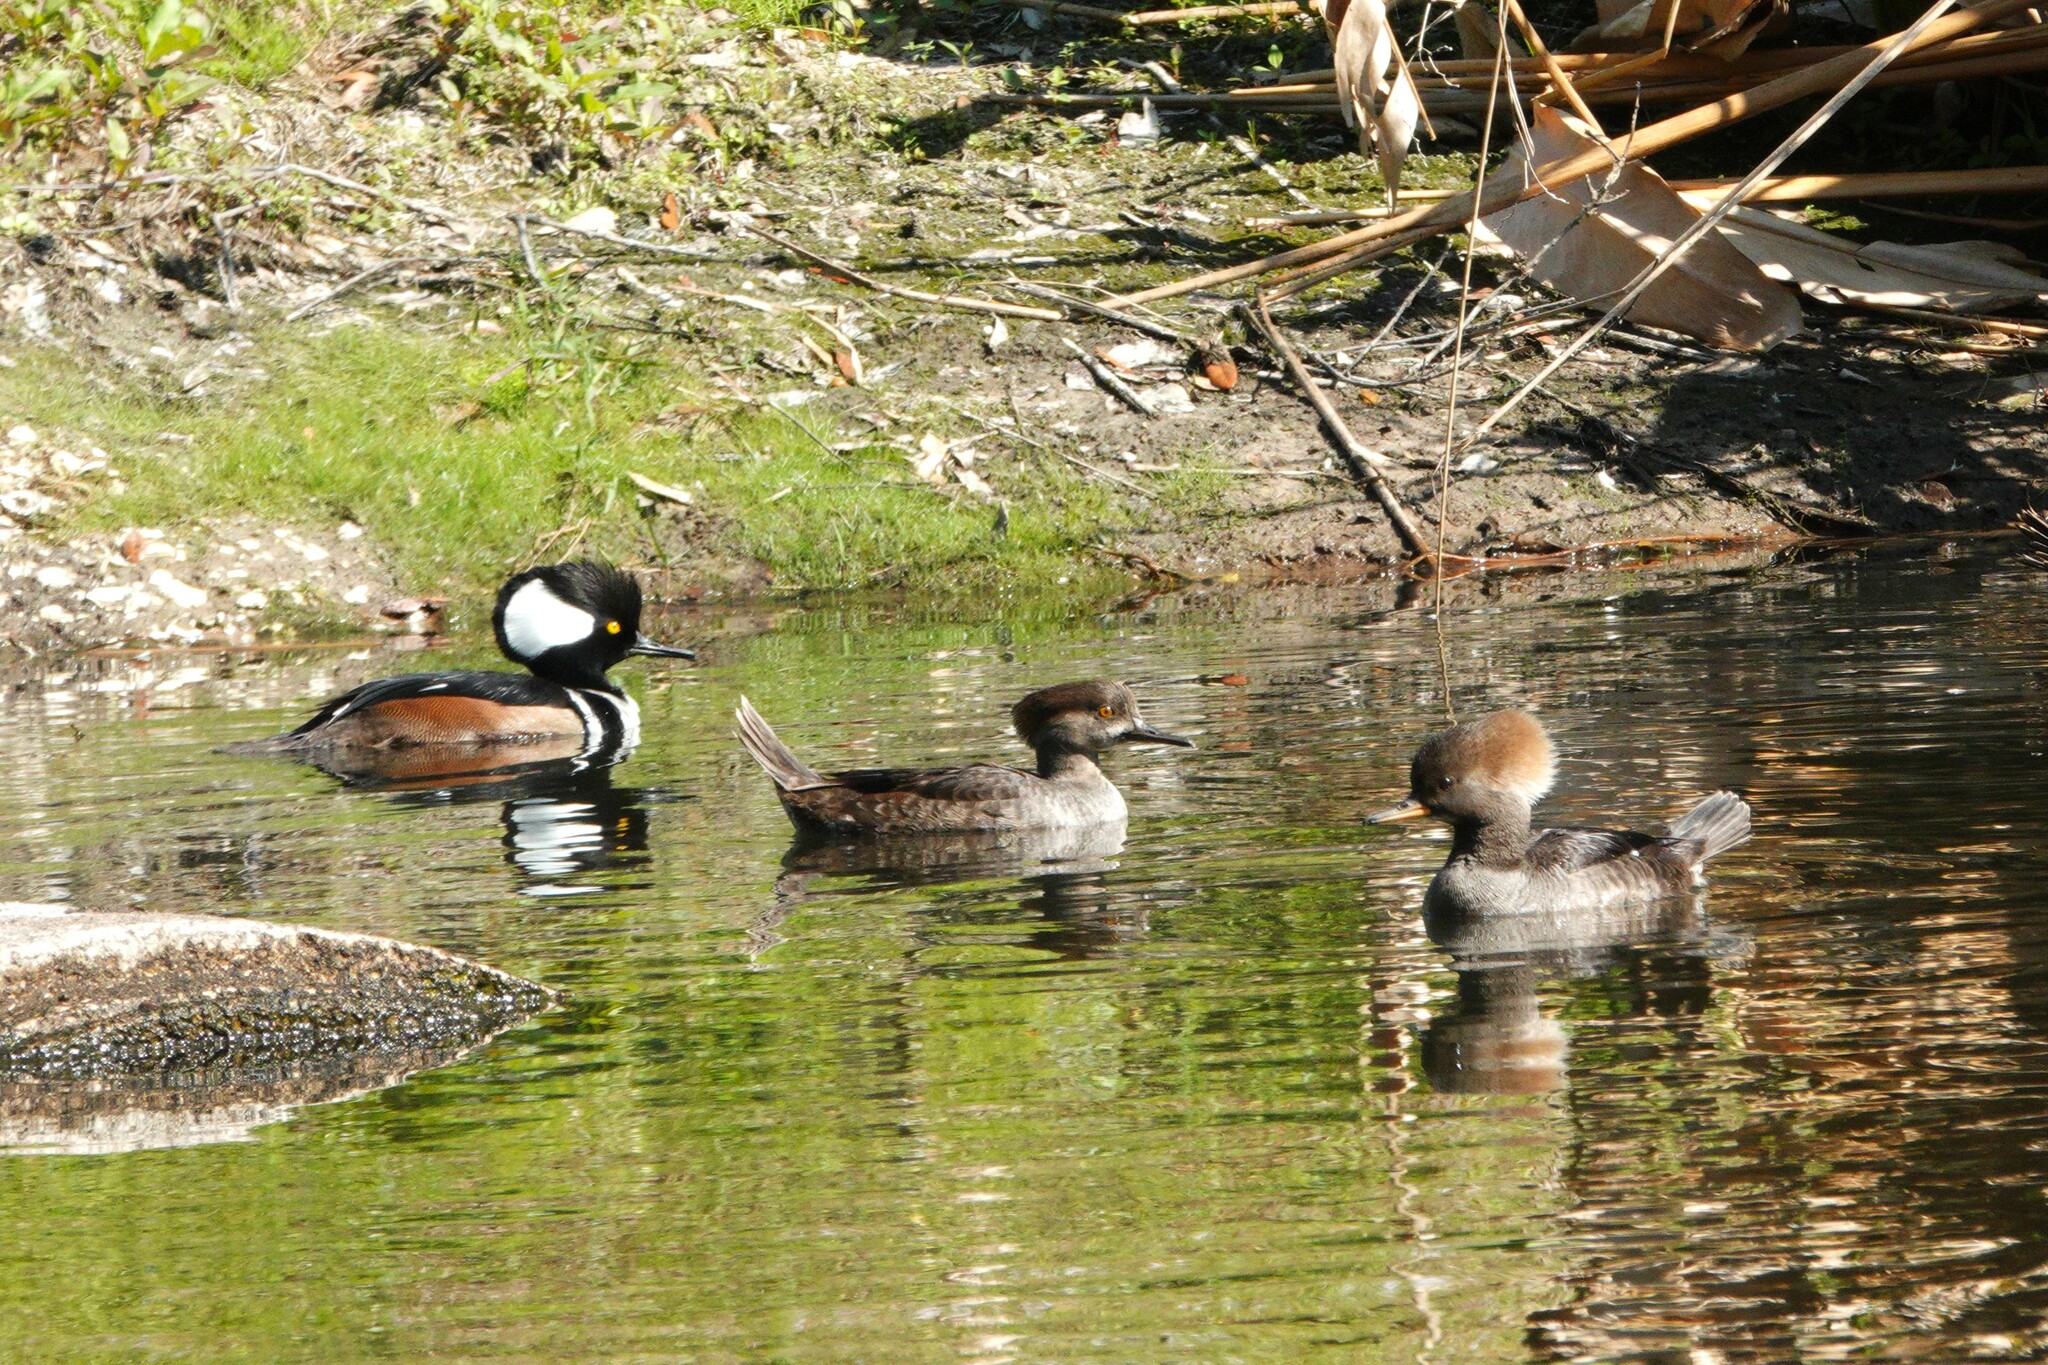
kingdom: Animalia
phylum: Chordata
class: Aves
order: Anseriformes
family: Anatidae
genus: Lophodytes
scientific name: Lophodytes cucullatus
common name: Hooded merganser
